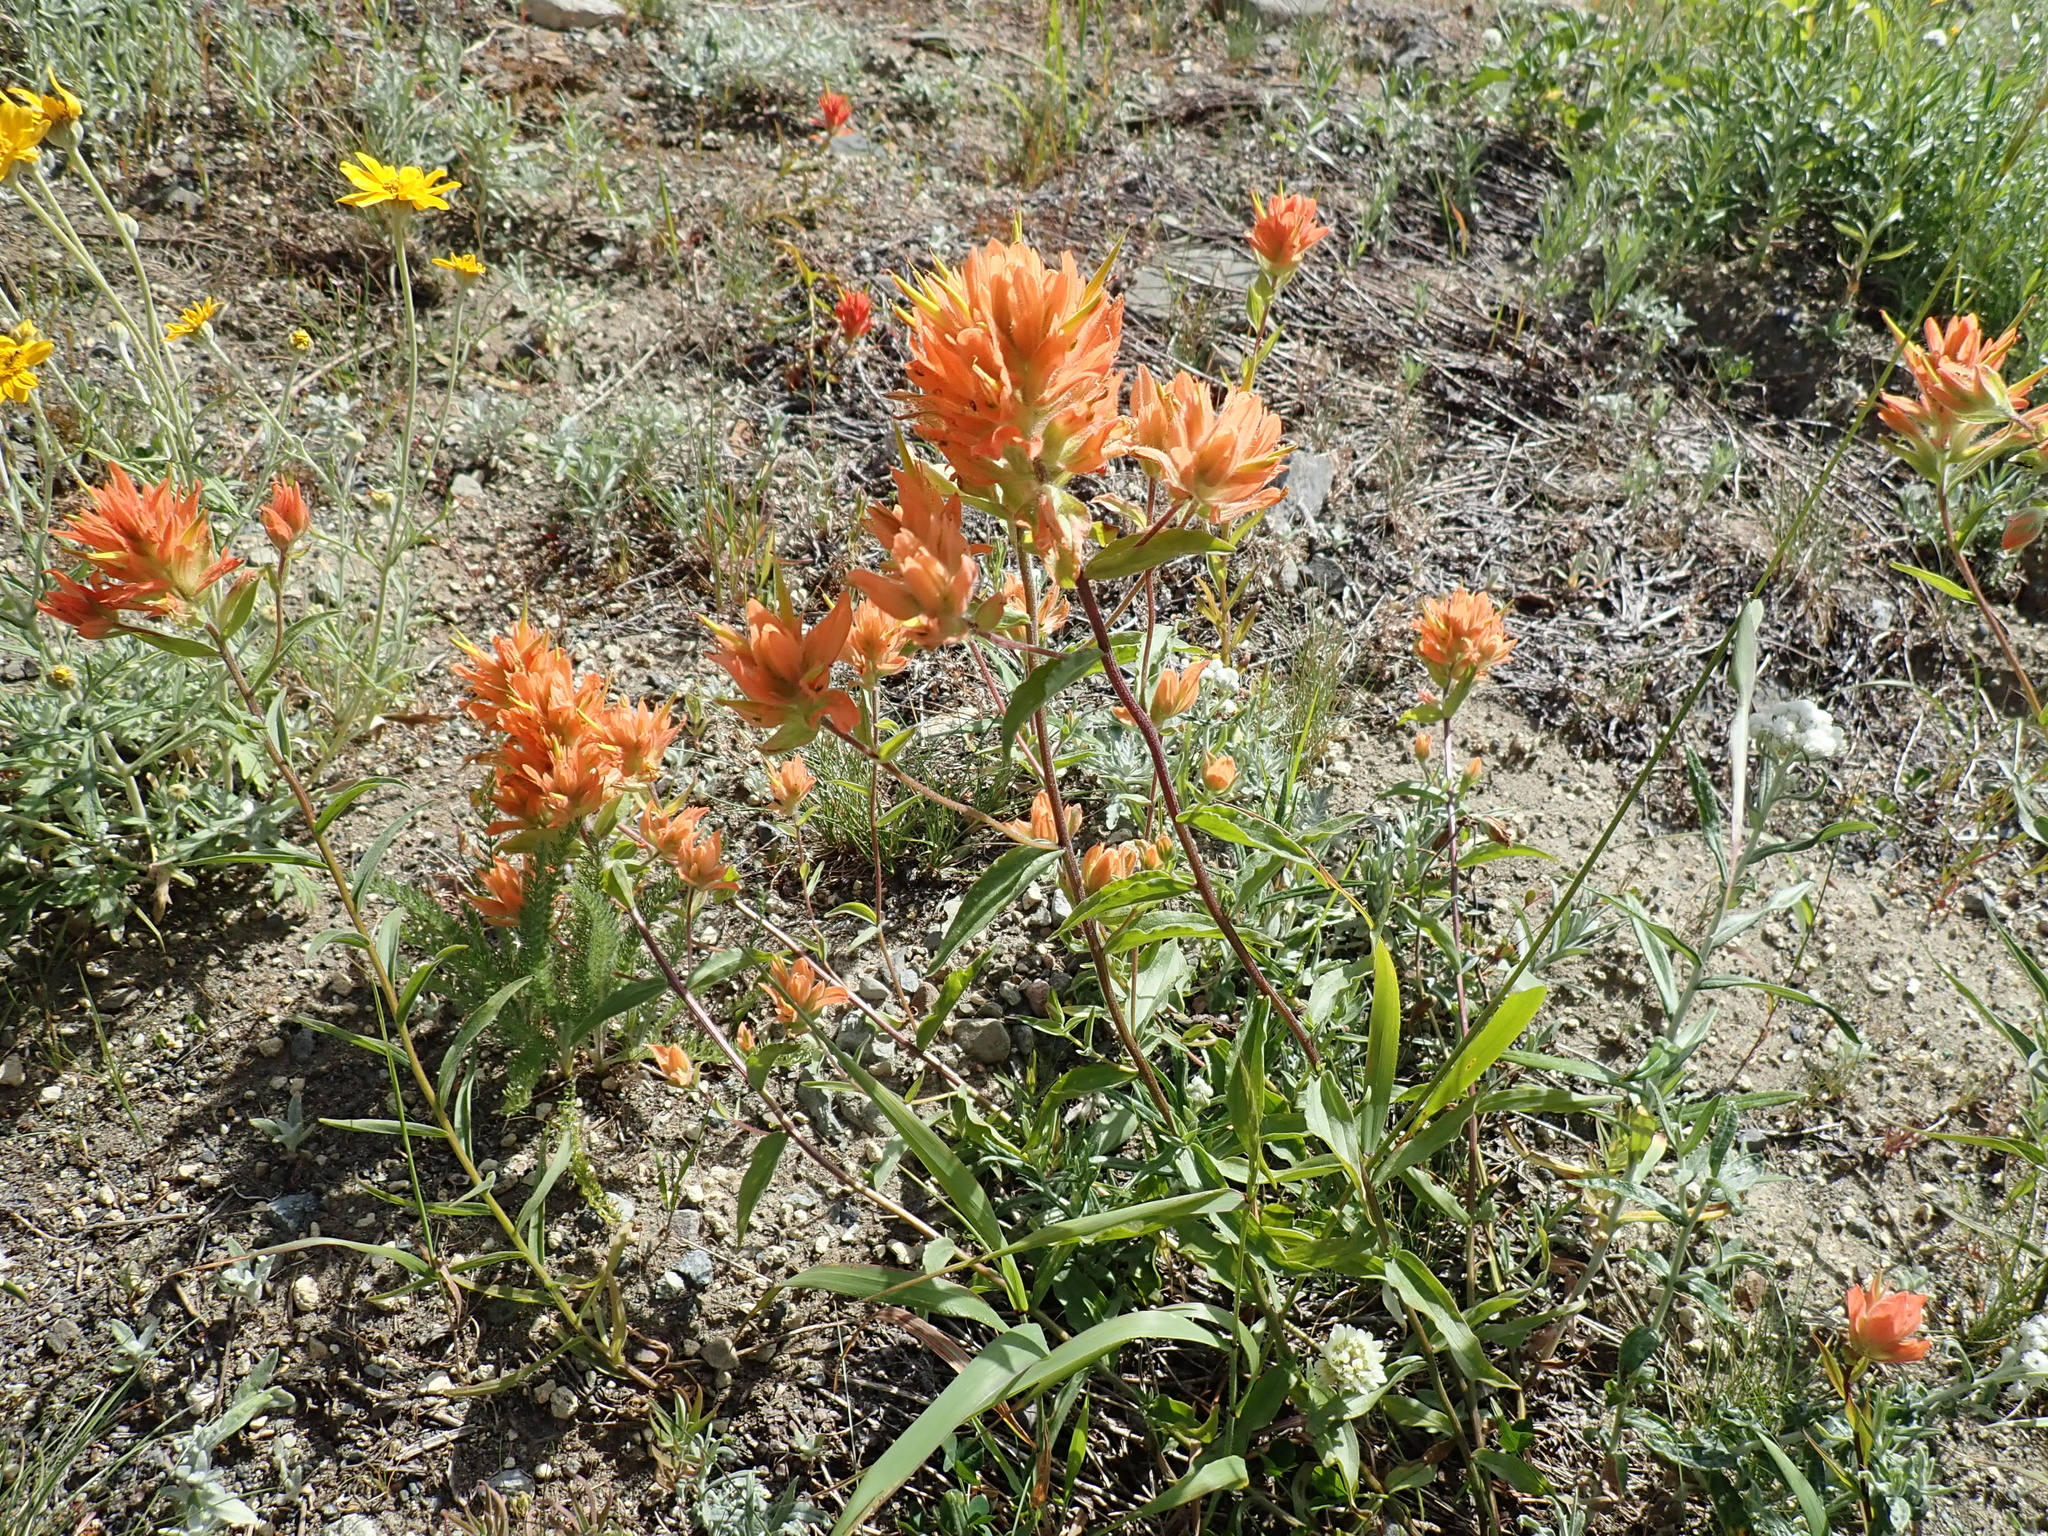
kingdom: Plantae
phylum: Tracheophyta
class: Magnoliopsida
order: Lamiales
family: Orobanchaceae
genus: Castilleja
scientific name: Castilleja miniata
